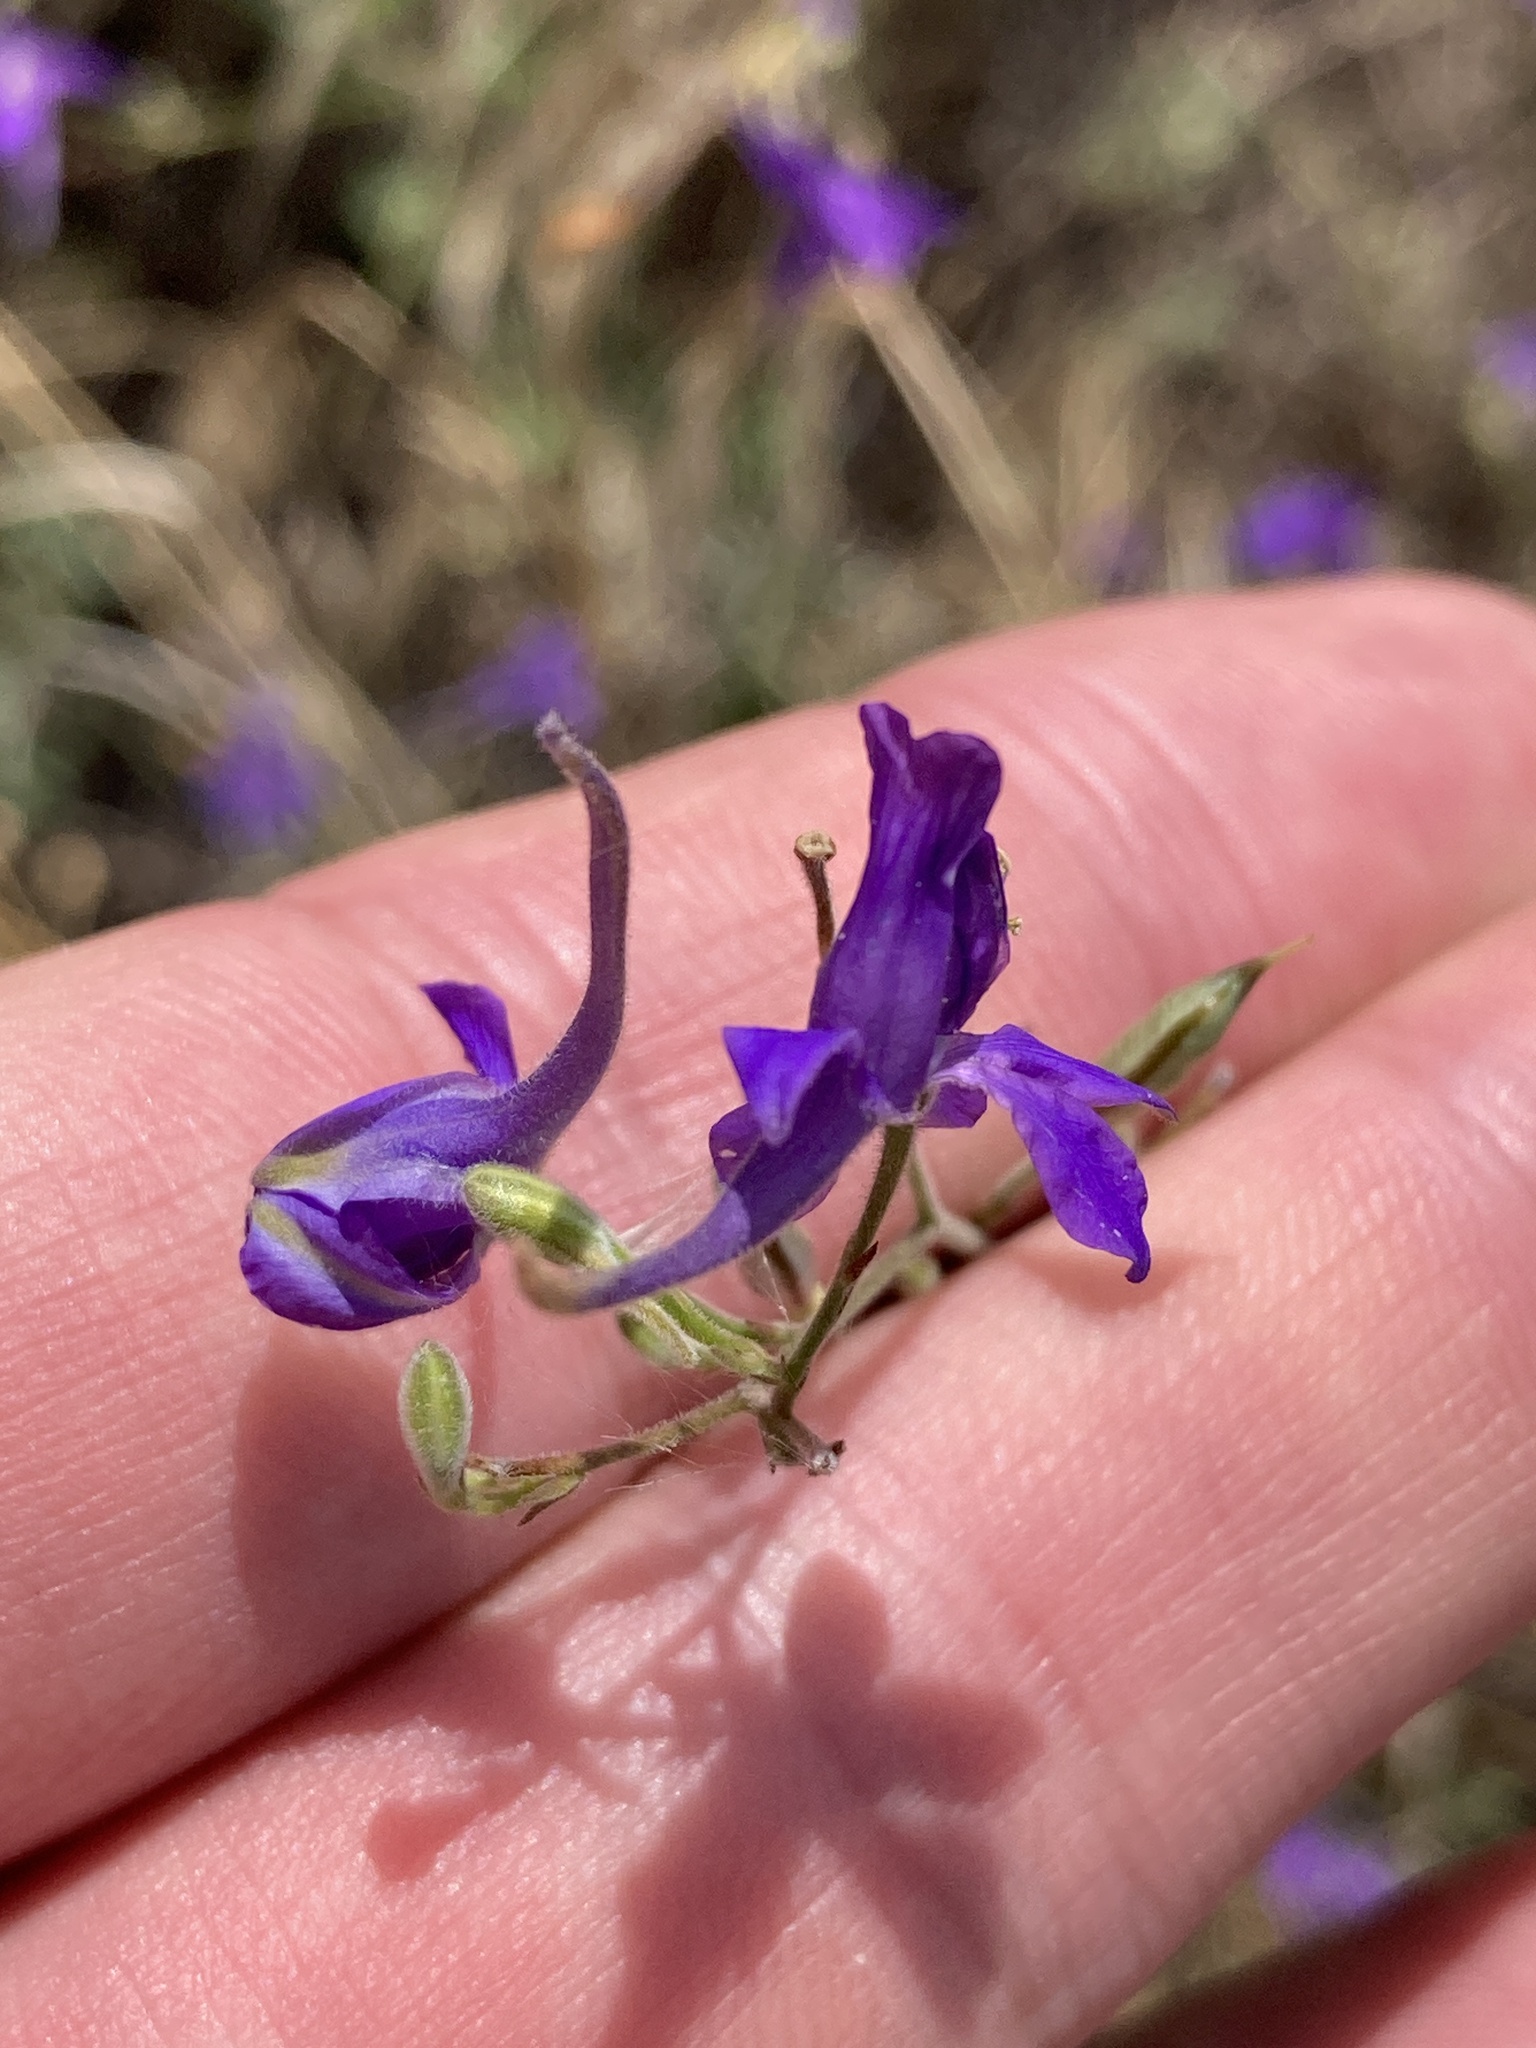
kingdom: Plantae
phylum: Tracheophyta
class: Magnoliopsida
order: Ranunculales
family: Ranunculaceae
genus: Delphinium
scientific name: Delphinium consolida
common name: Branching larkspur
